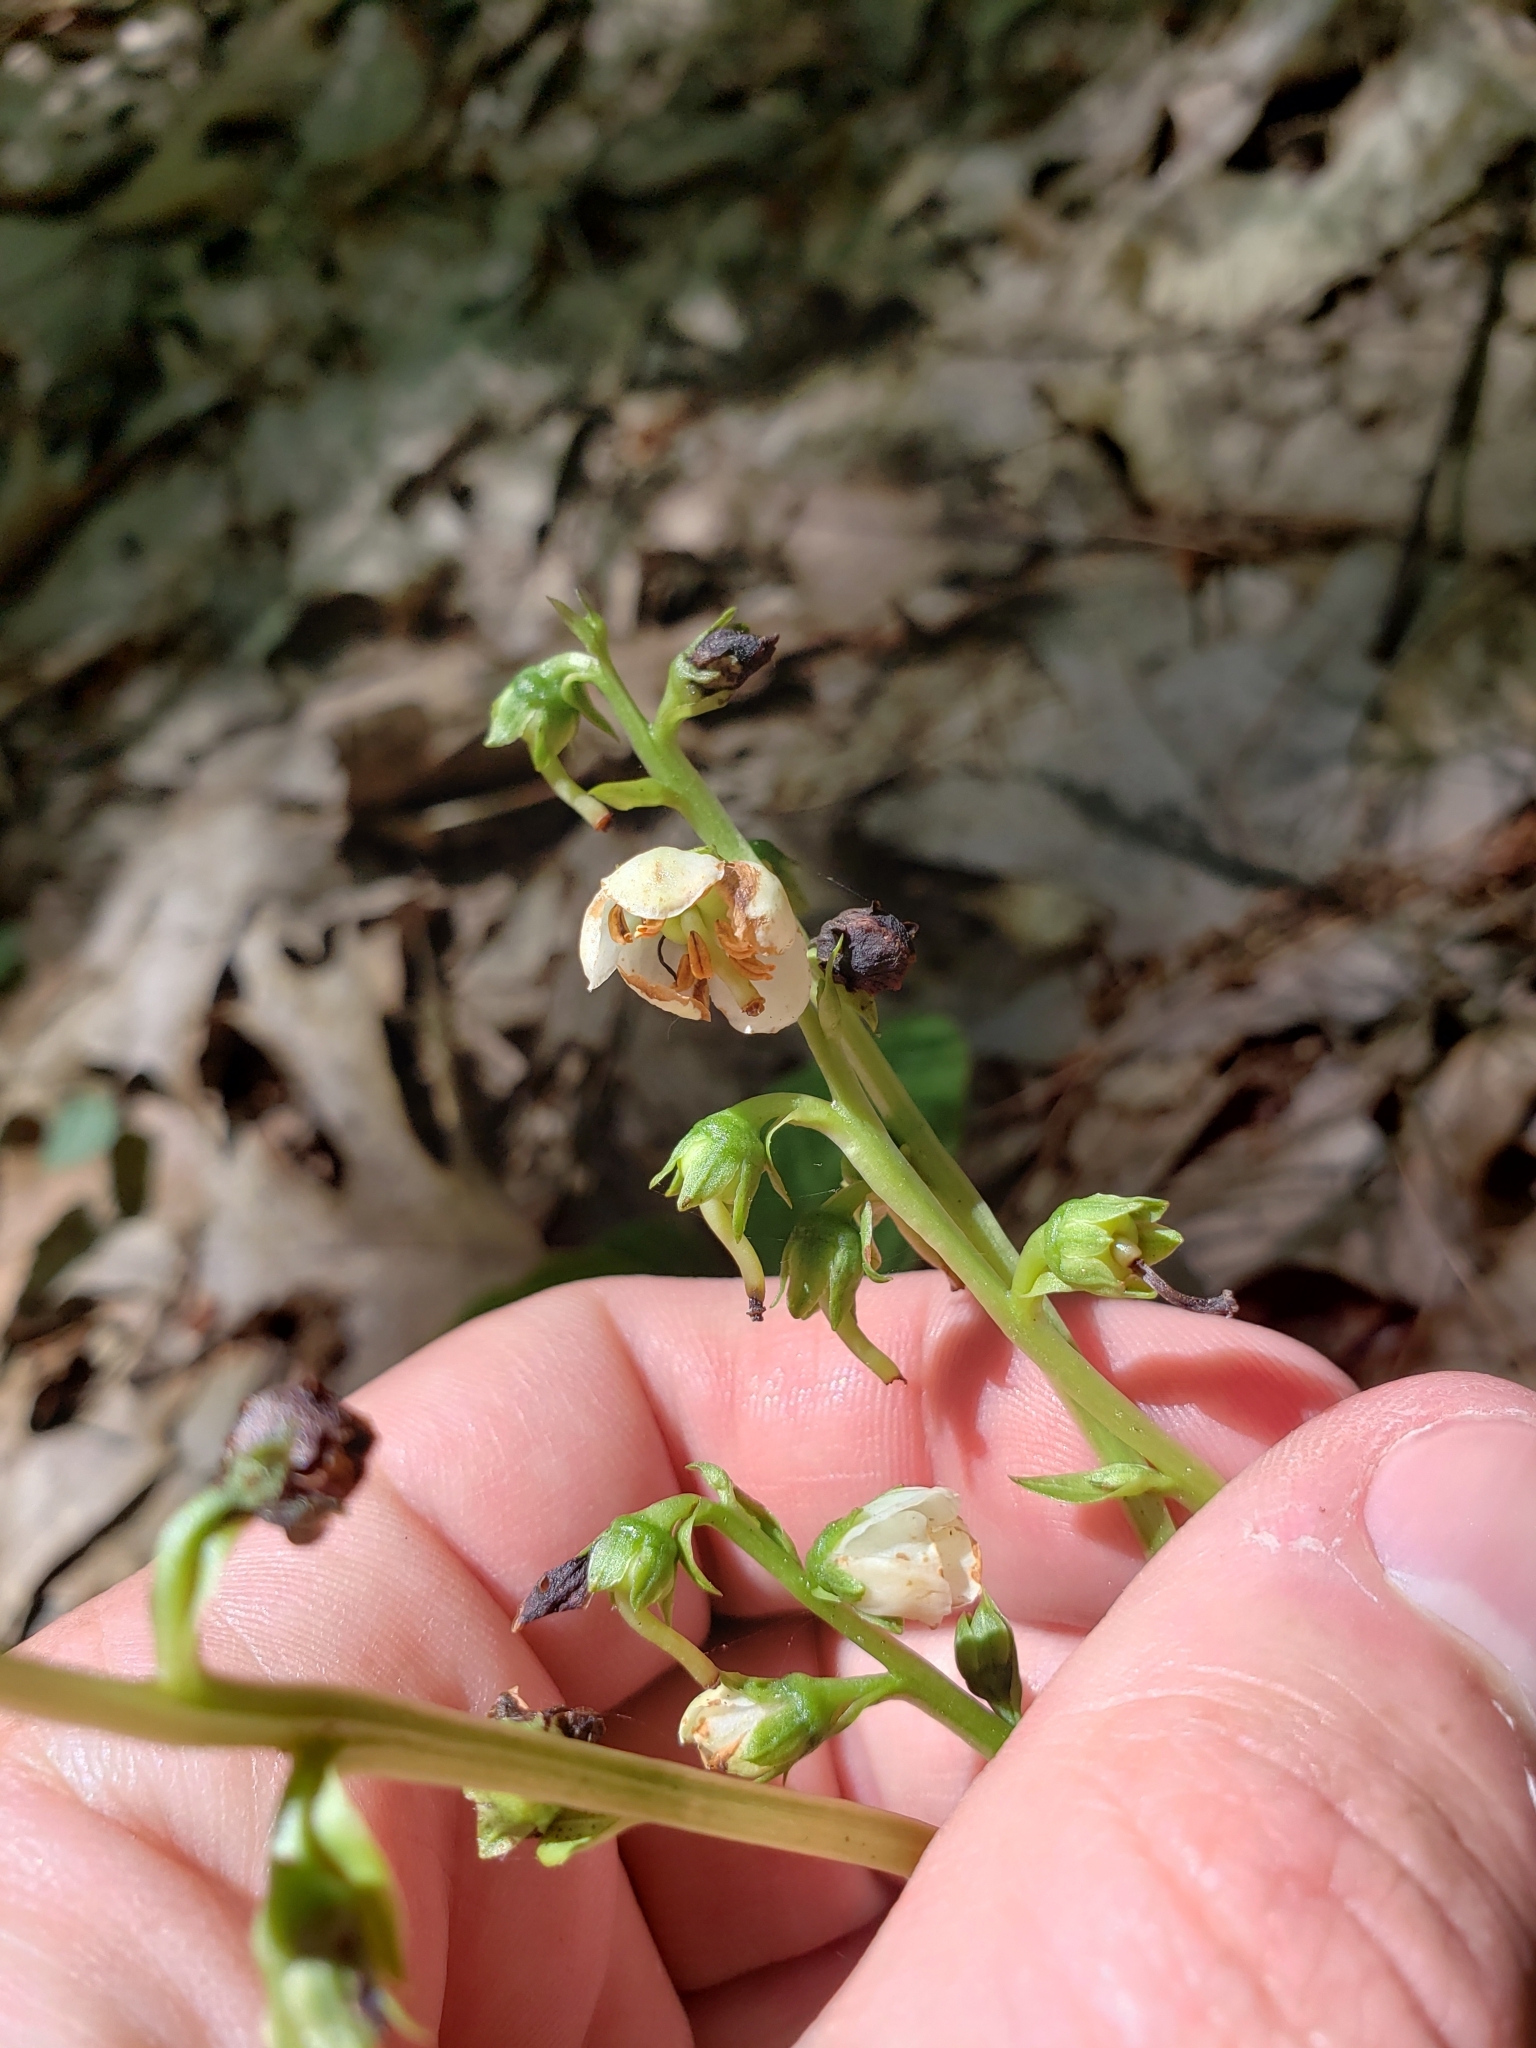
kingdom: Plantae
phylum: Tracheophyta
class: Magnoliopsida
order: Ericales
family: Ericaceae
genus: Pyrola
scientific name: Pyrola americana
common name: American wintergreen
